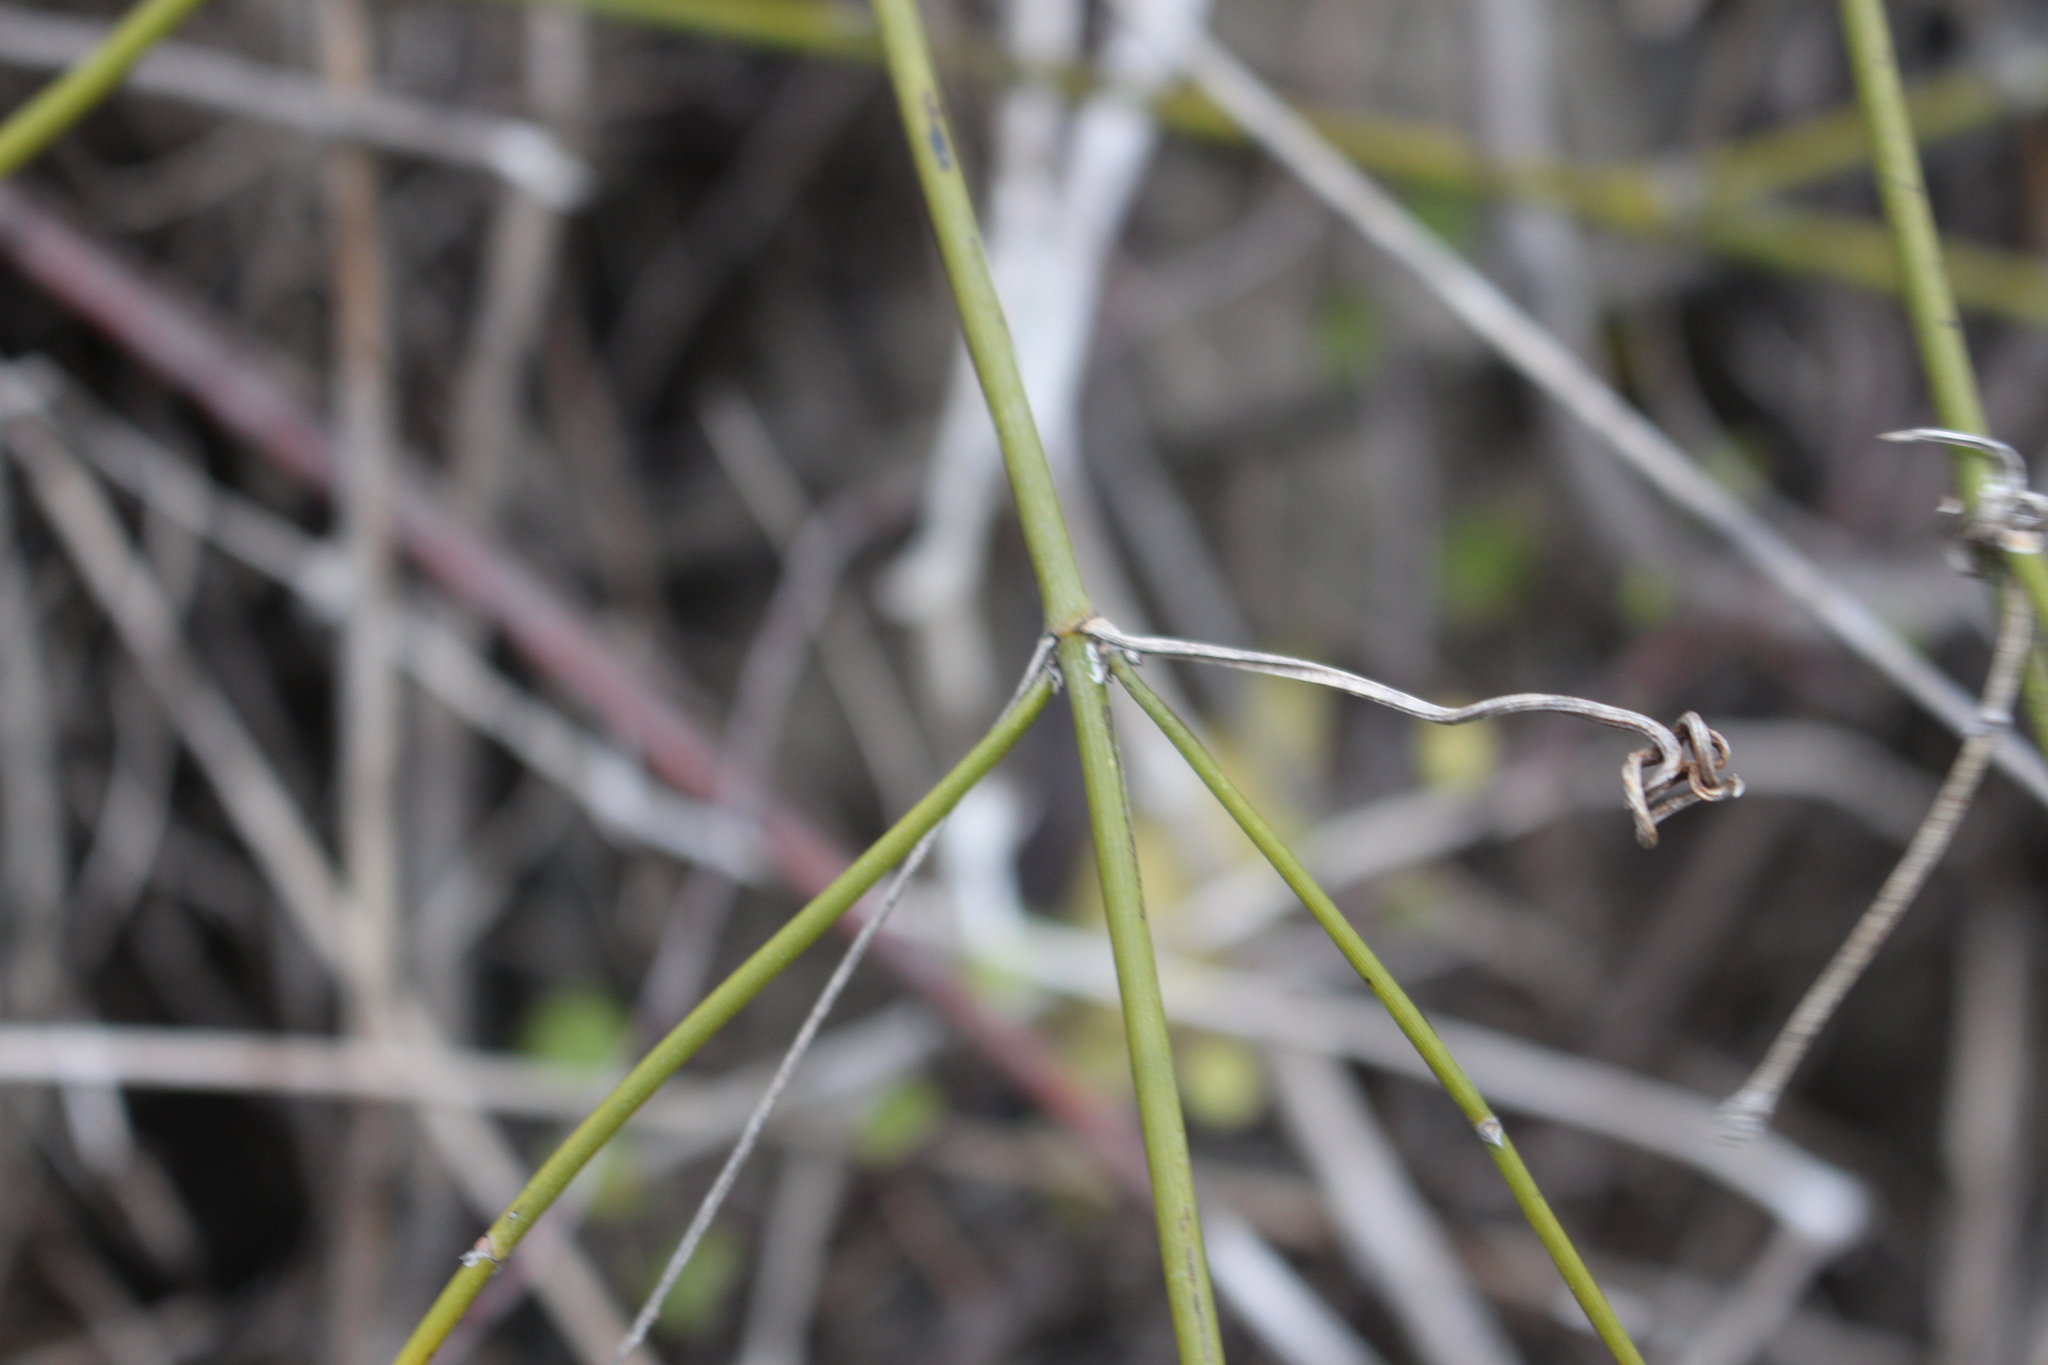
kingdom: Plantae
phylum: Tracheophyta
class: Magnoliopsida
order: Ranunculales
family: Ranunculaceae
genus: Clematis
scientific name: Clematis afoliata
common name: Rush-stem clematis
